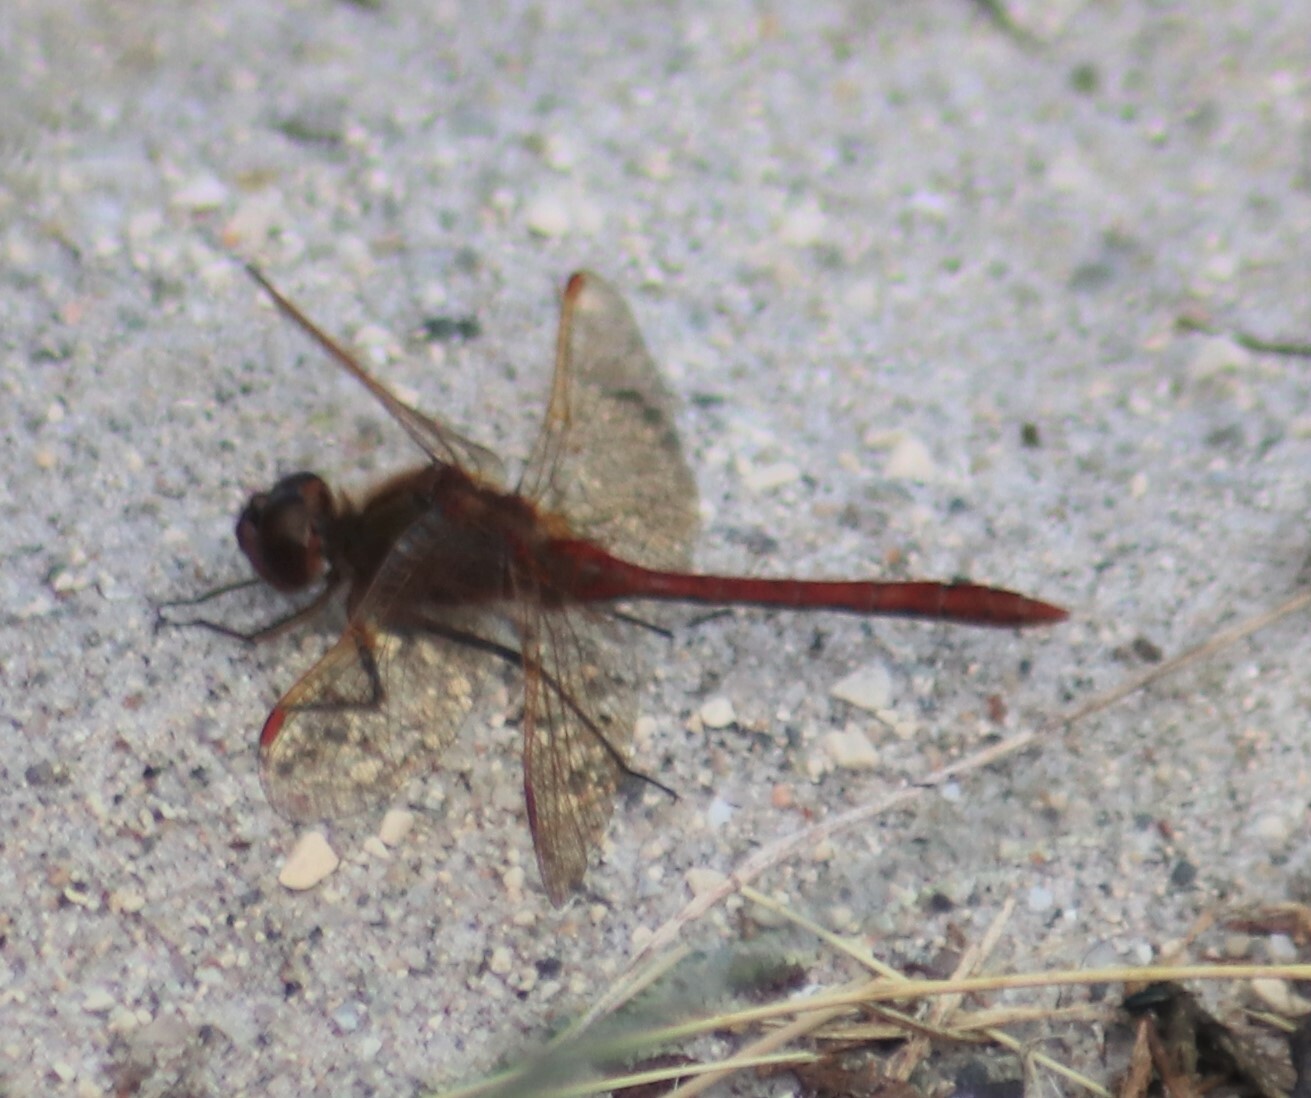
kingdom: Animalia
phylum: Arthropoda
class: Insecta
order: Odonata
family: Libellulidae
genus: Sympetrum
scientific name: Sympetrum costiferum
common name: Saffron-winged meadowhawk
